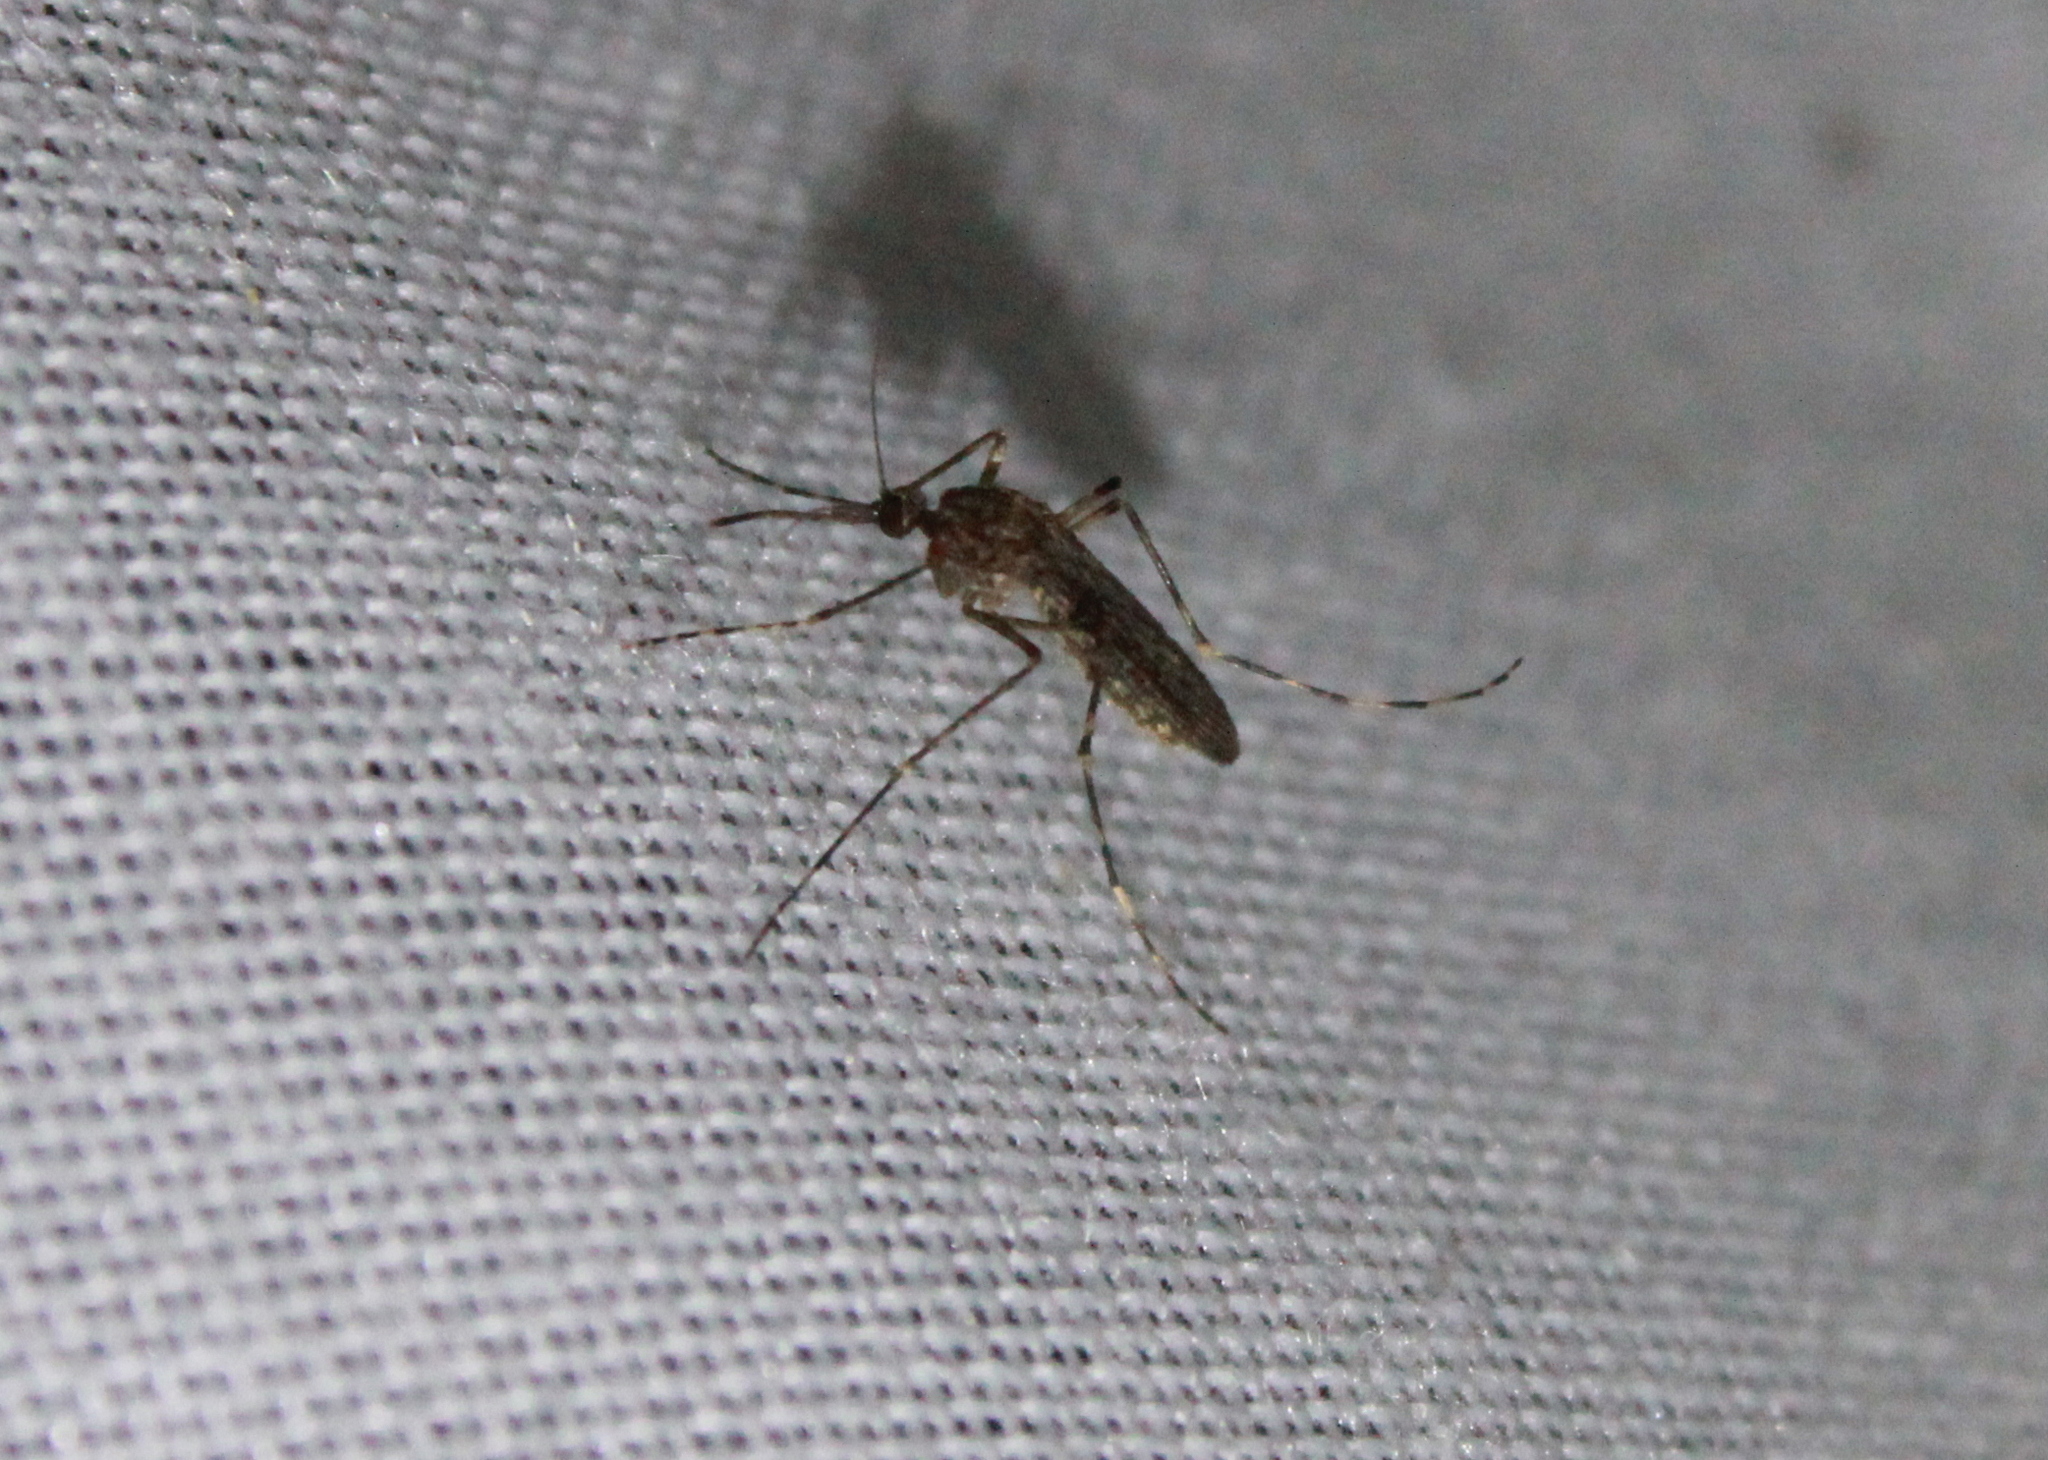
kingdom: Animalia
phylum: Arthropoda
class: Insecta
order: Diptera
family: Culicidae
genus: Coquillettidia
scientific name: Coquillettidia perturbans
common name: Cattail mosquito
